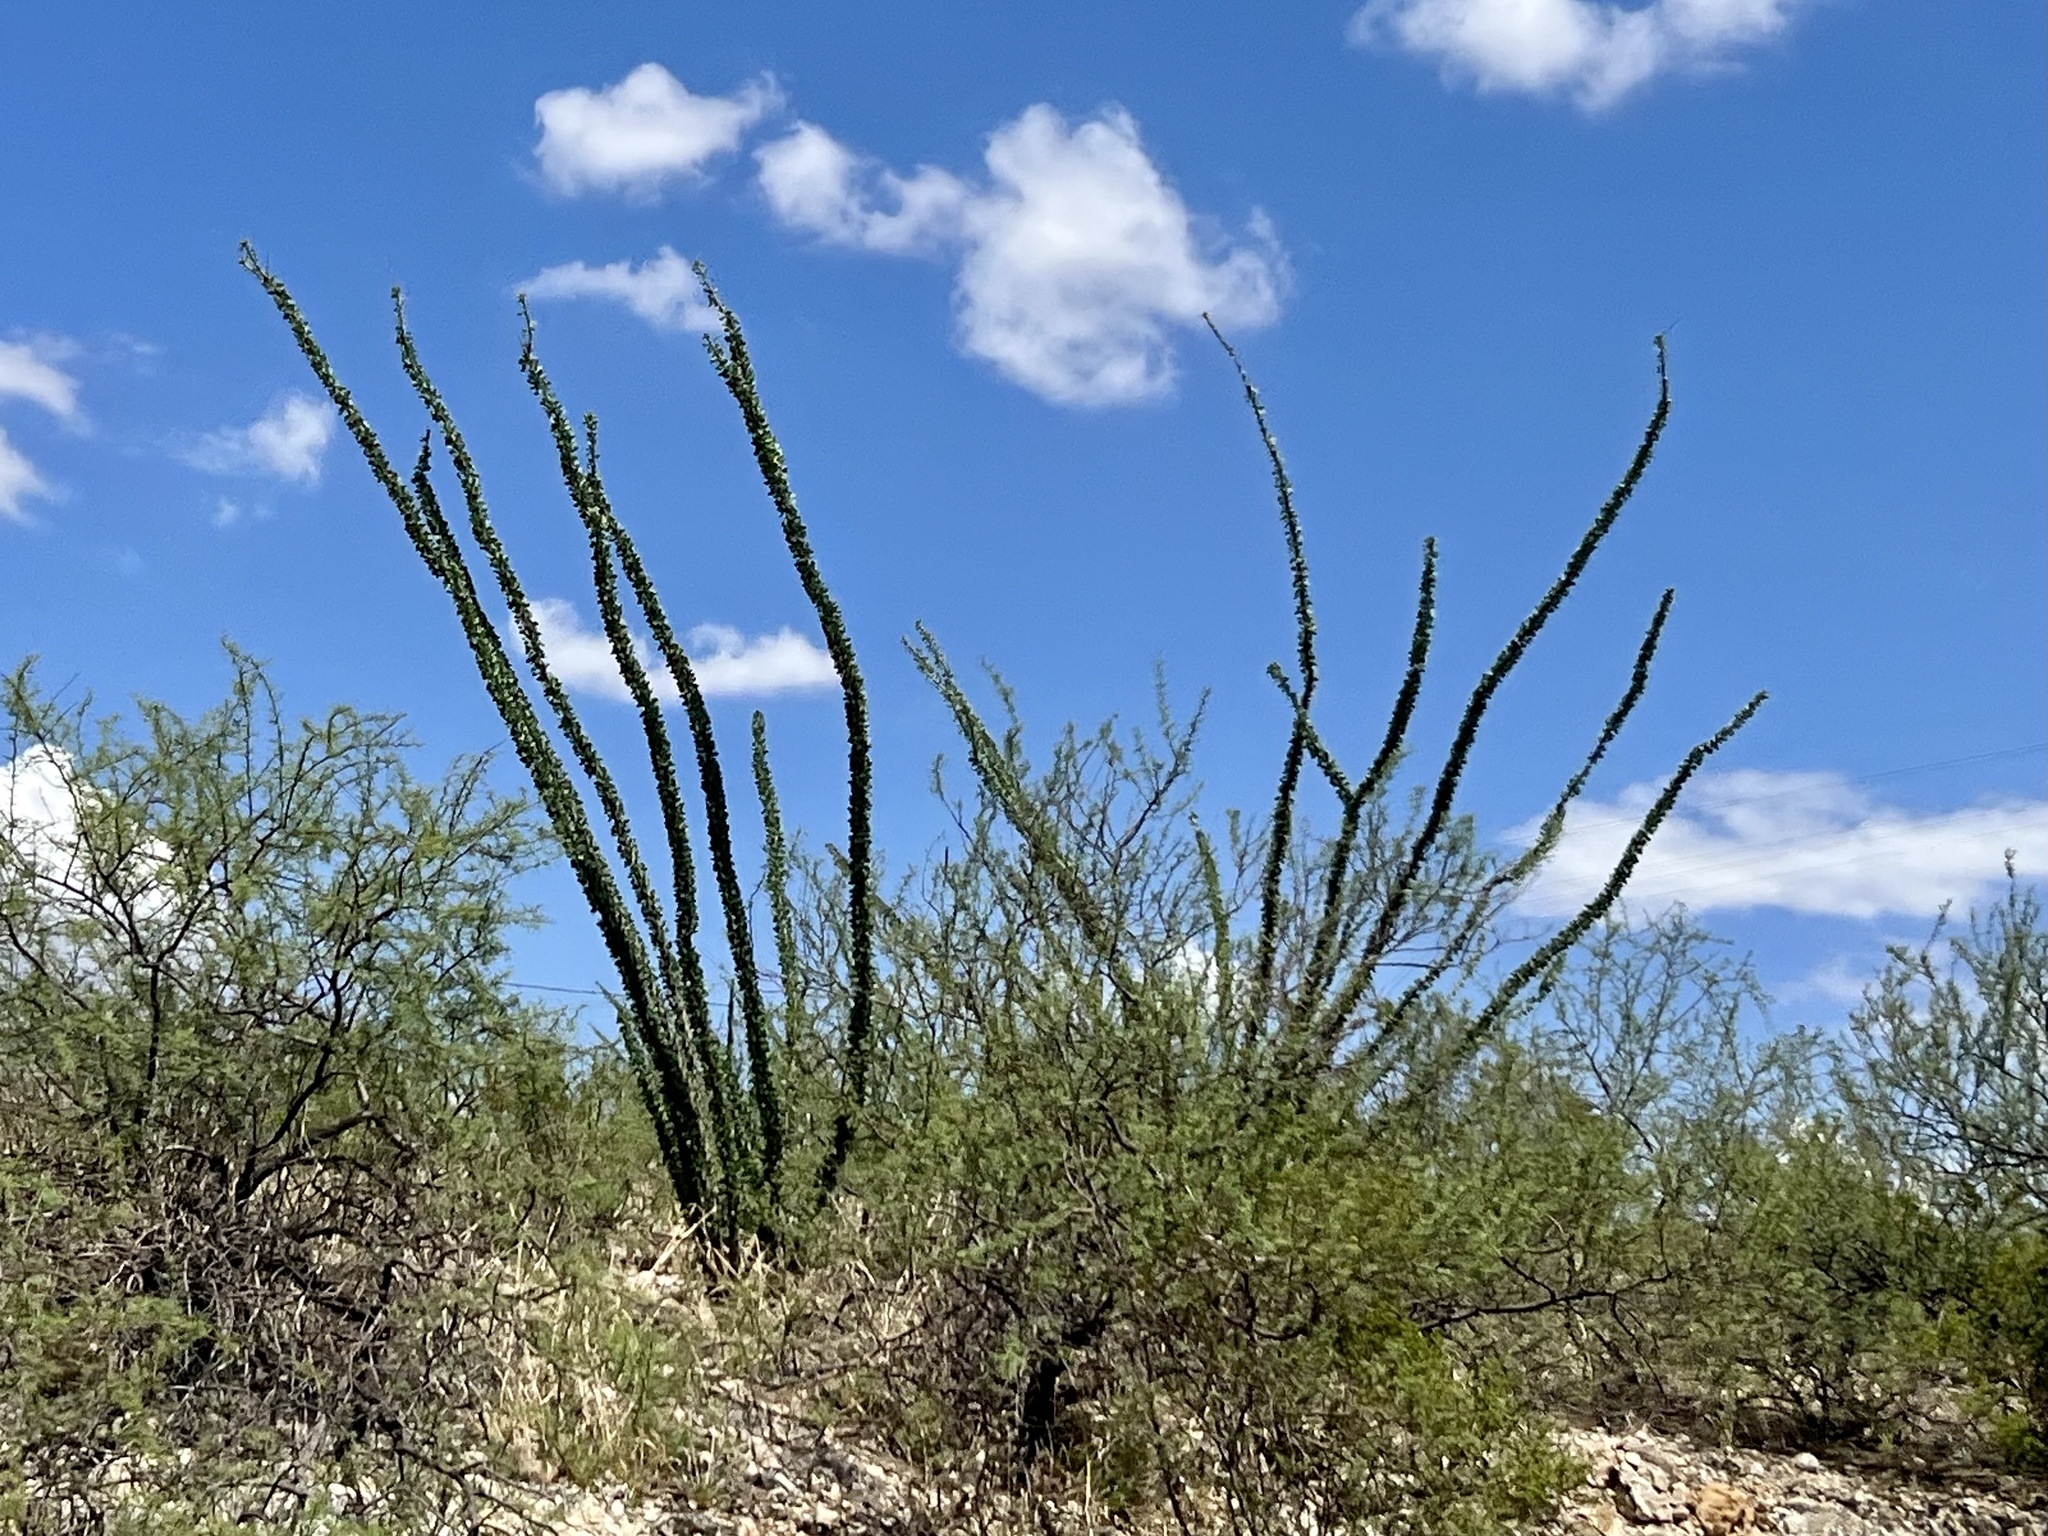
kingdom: Plantae
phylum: Tracheophyta
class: Magnoliopsida
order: Ericales
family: Fouquieriaceae
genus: Fouquieria
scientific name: Fouquieria splendens
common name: Vine-cactus
